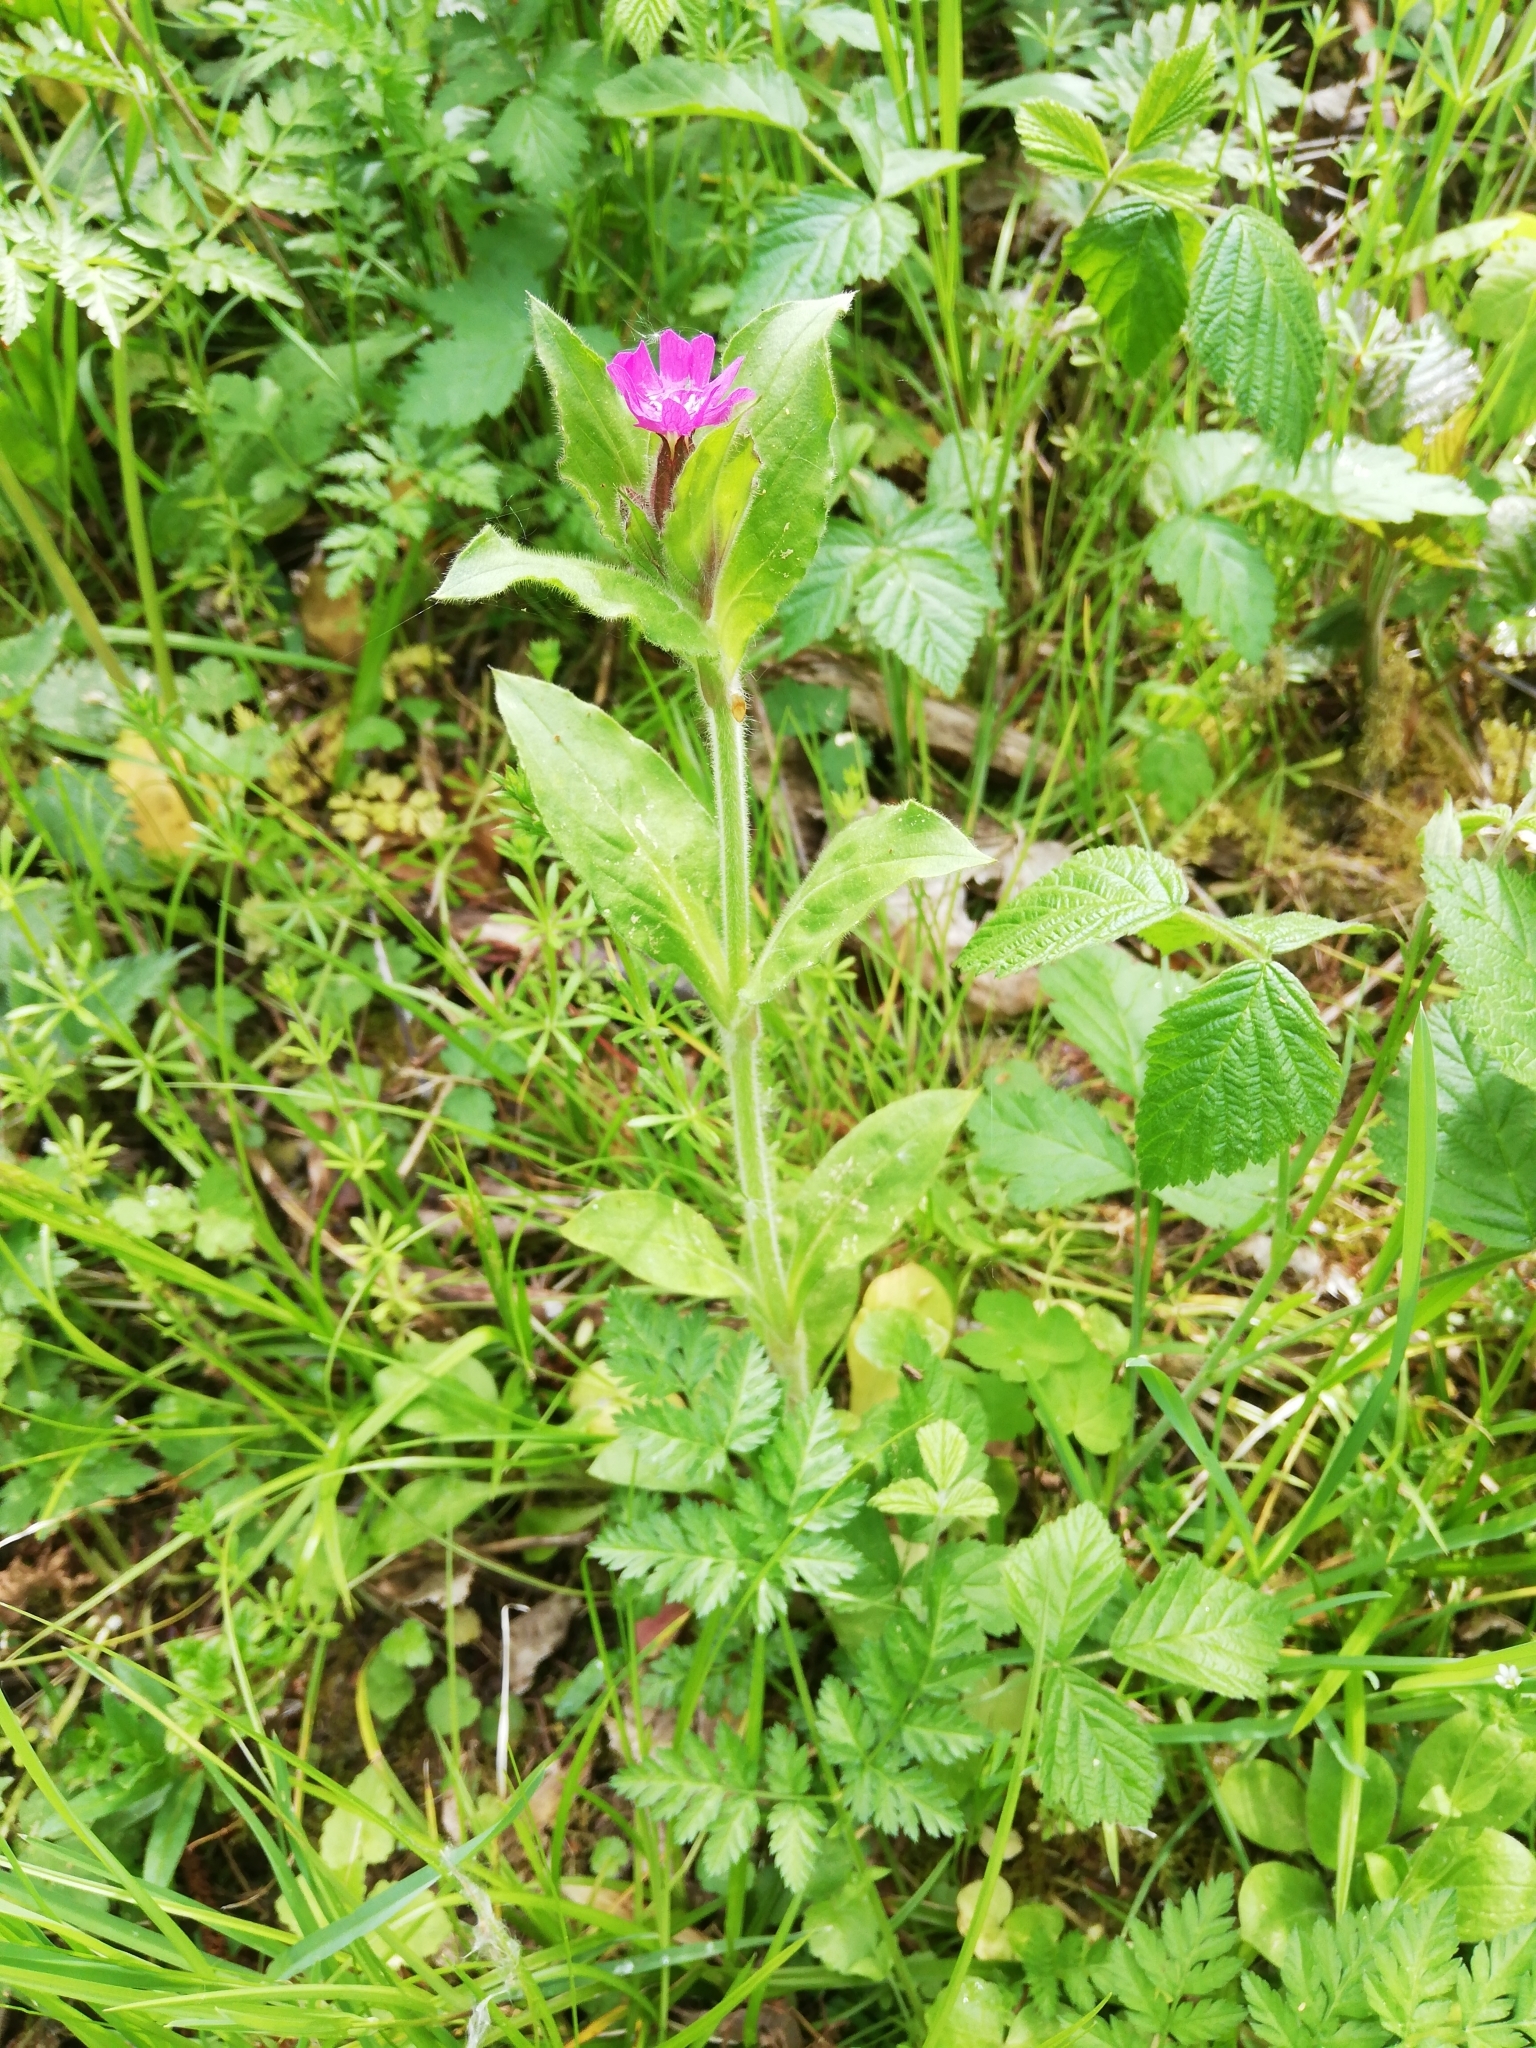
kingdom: Plantae
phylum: Tracheophyta
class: Magnoliopsida
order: Caryophyllales
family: Caryophyllaceae
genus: Silene
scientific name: Silene dioica
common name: Red campion
